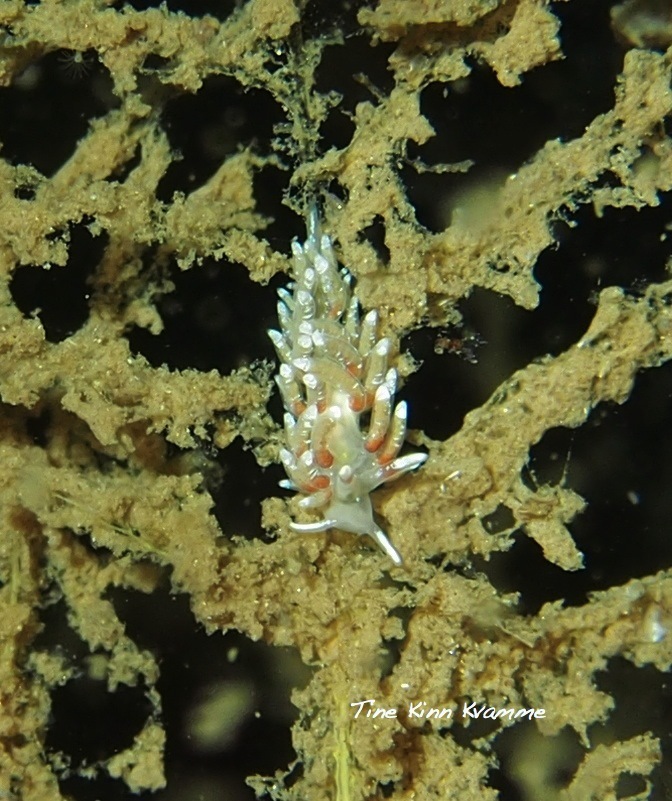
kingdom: Animalia
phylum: Mollusca
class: Gastropoda
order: Nudibranchia
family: Trinchesiidae
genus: Rubramoena
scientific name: Rubramoena rubescens
